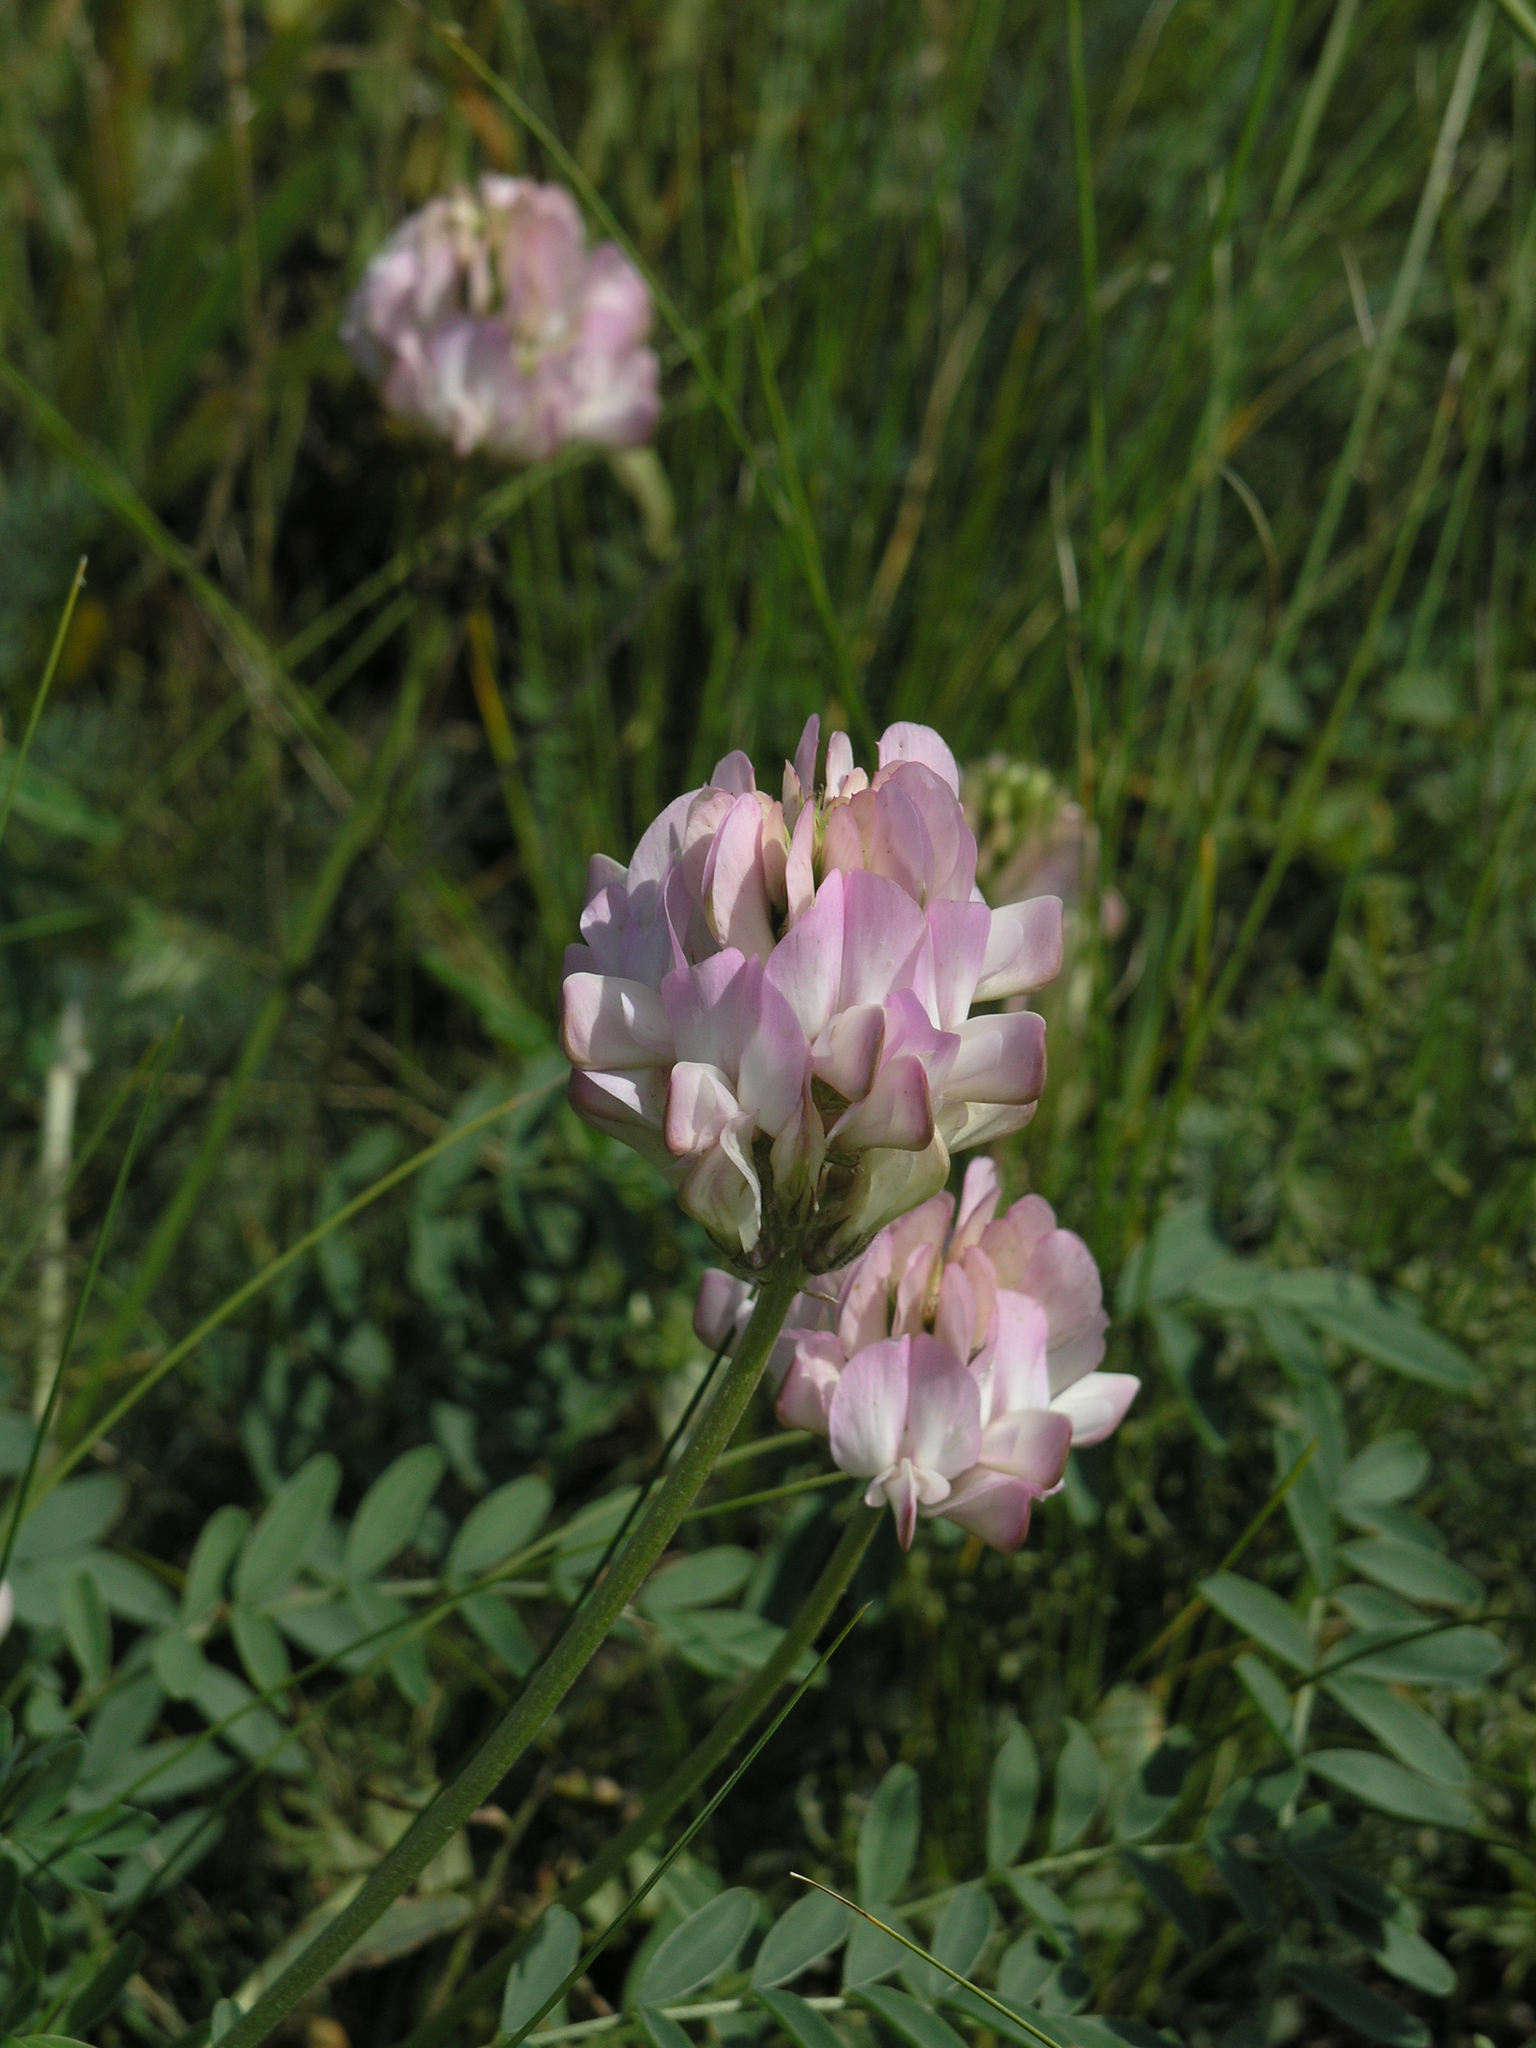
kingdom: Plantae
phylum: Tracheophyta
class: Magnoliopsida
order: Fabales
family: Fabaceae
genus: Hedysarum
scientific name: Hedysarum gmelinii
